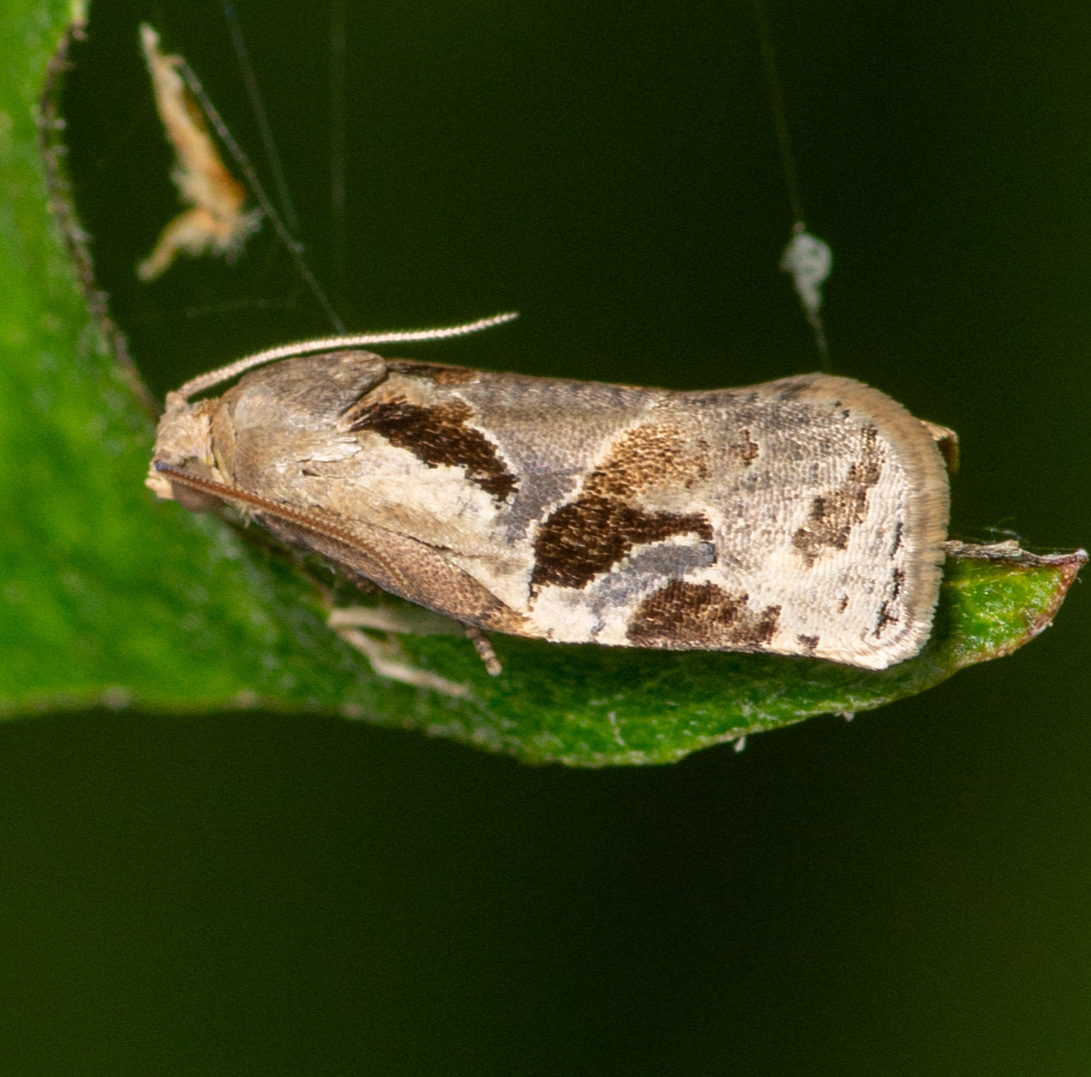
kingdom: Animalia
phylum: Arthropoda
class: Insecta
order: Lepidoptera
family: Tortricidae
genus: Archips
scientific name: Archips grisea
